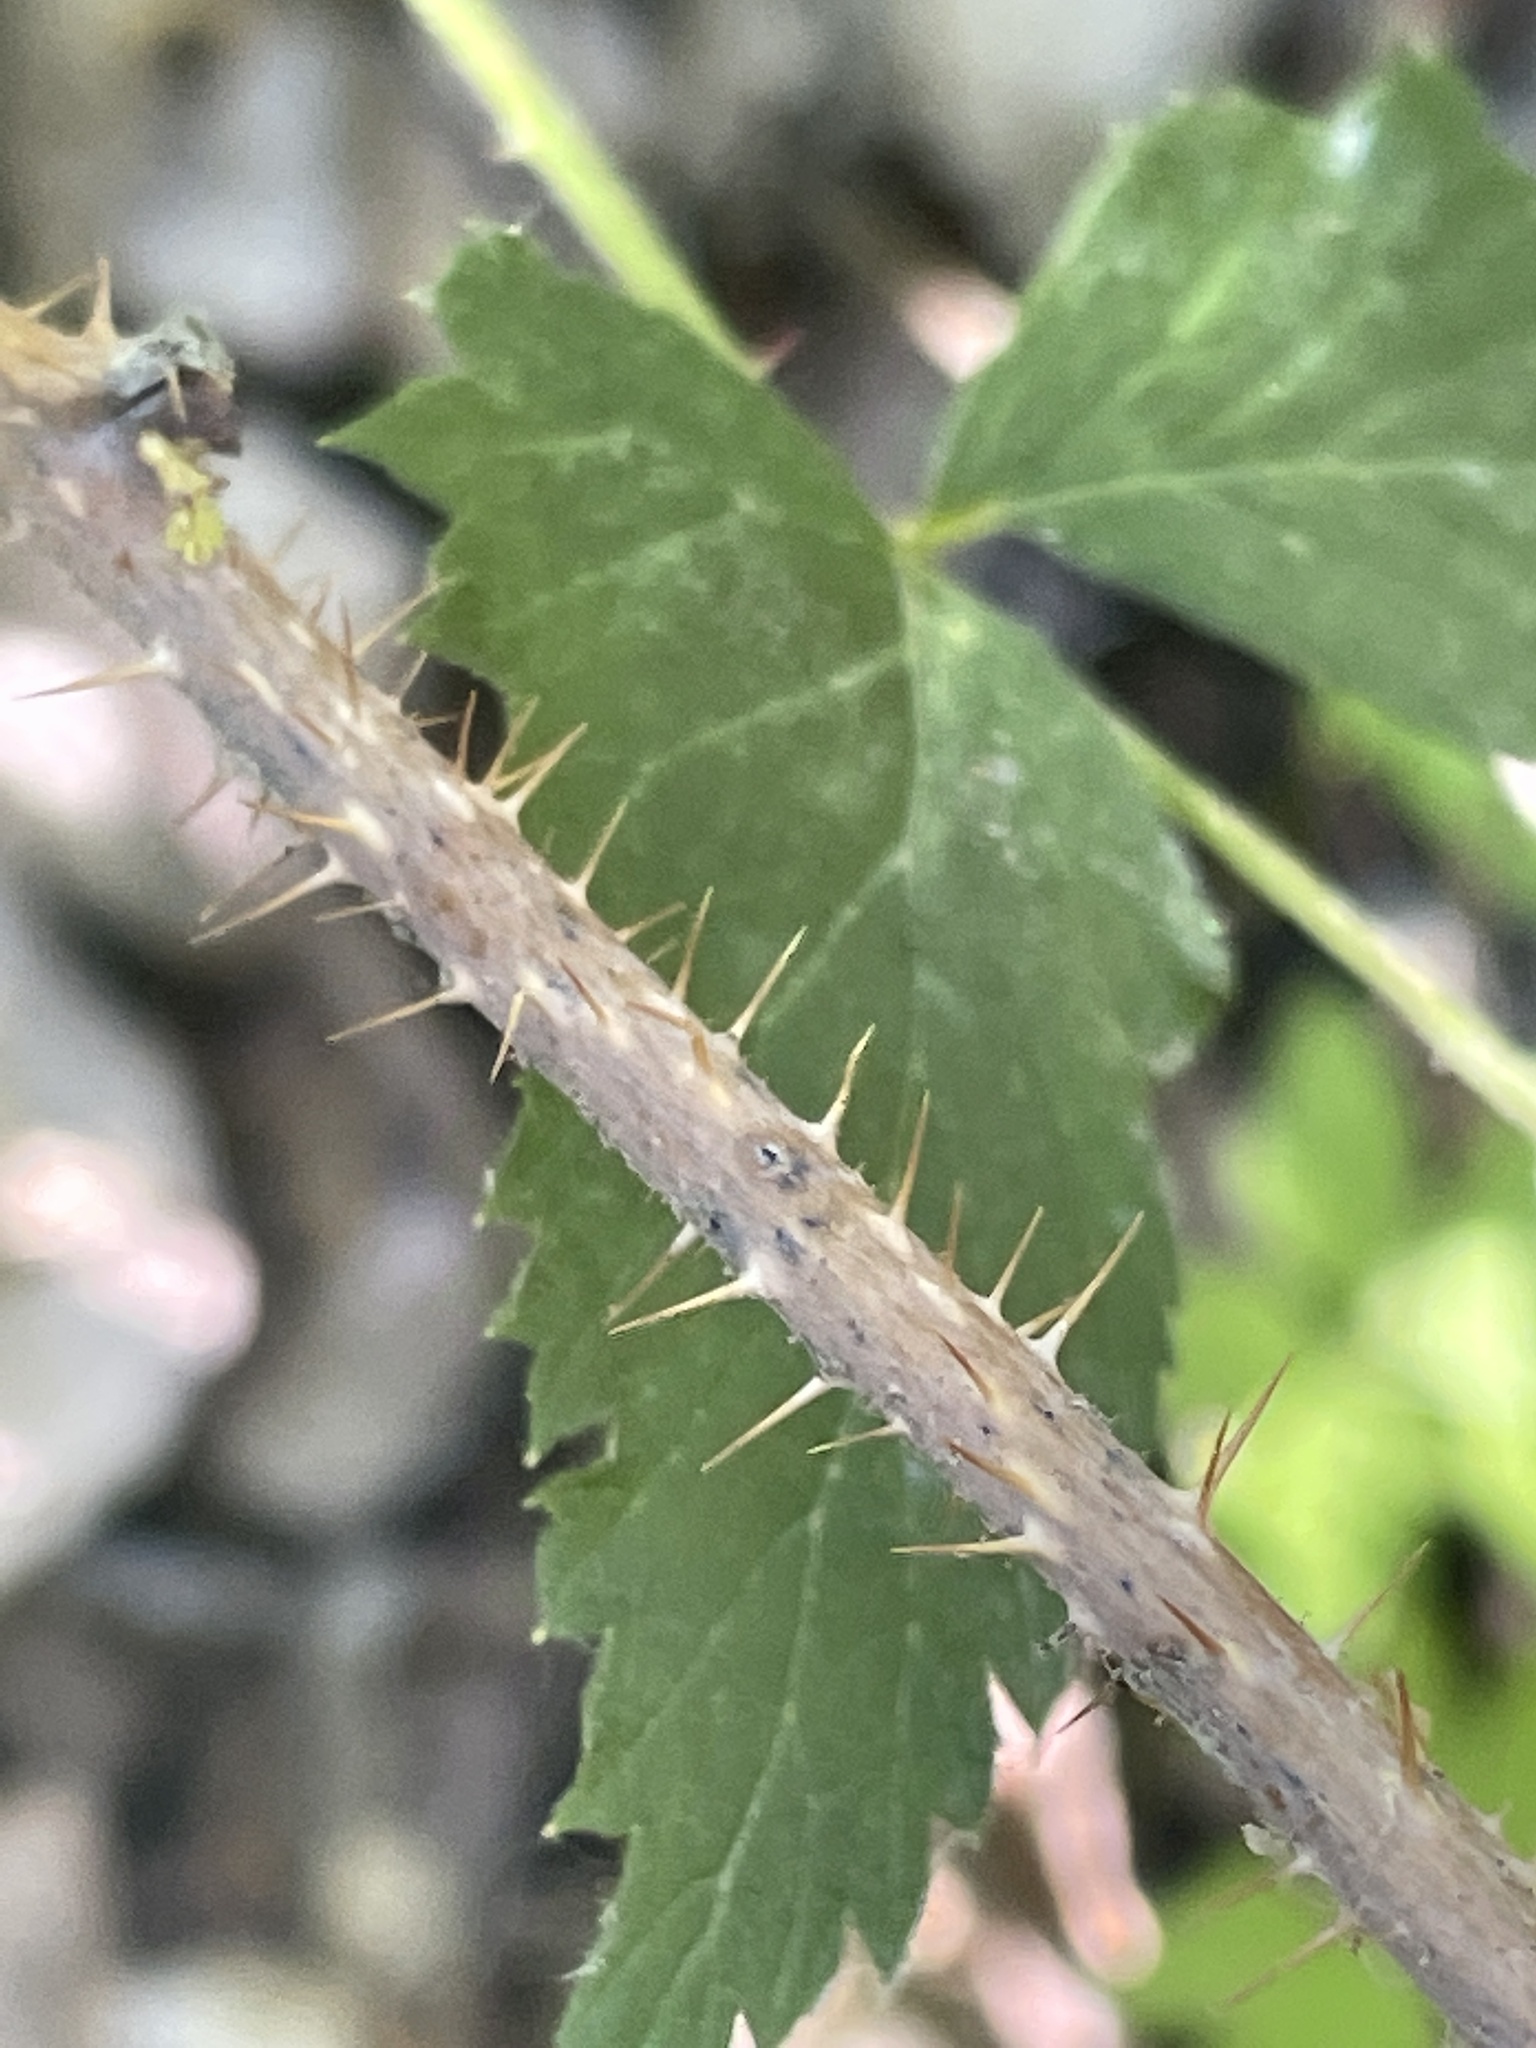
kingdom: Plantae
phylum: Tracheophyta
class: Magnoliopsida
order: Rosales
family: Rosaceae
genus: Rubus
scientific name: Rubus idaeus
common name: Raspberry
